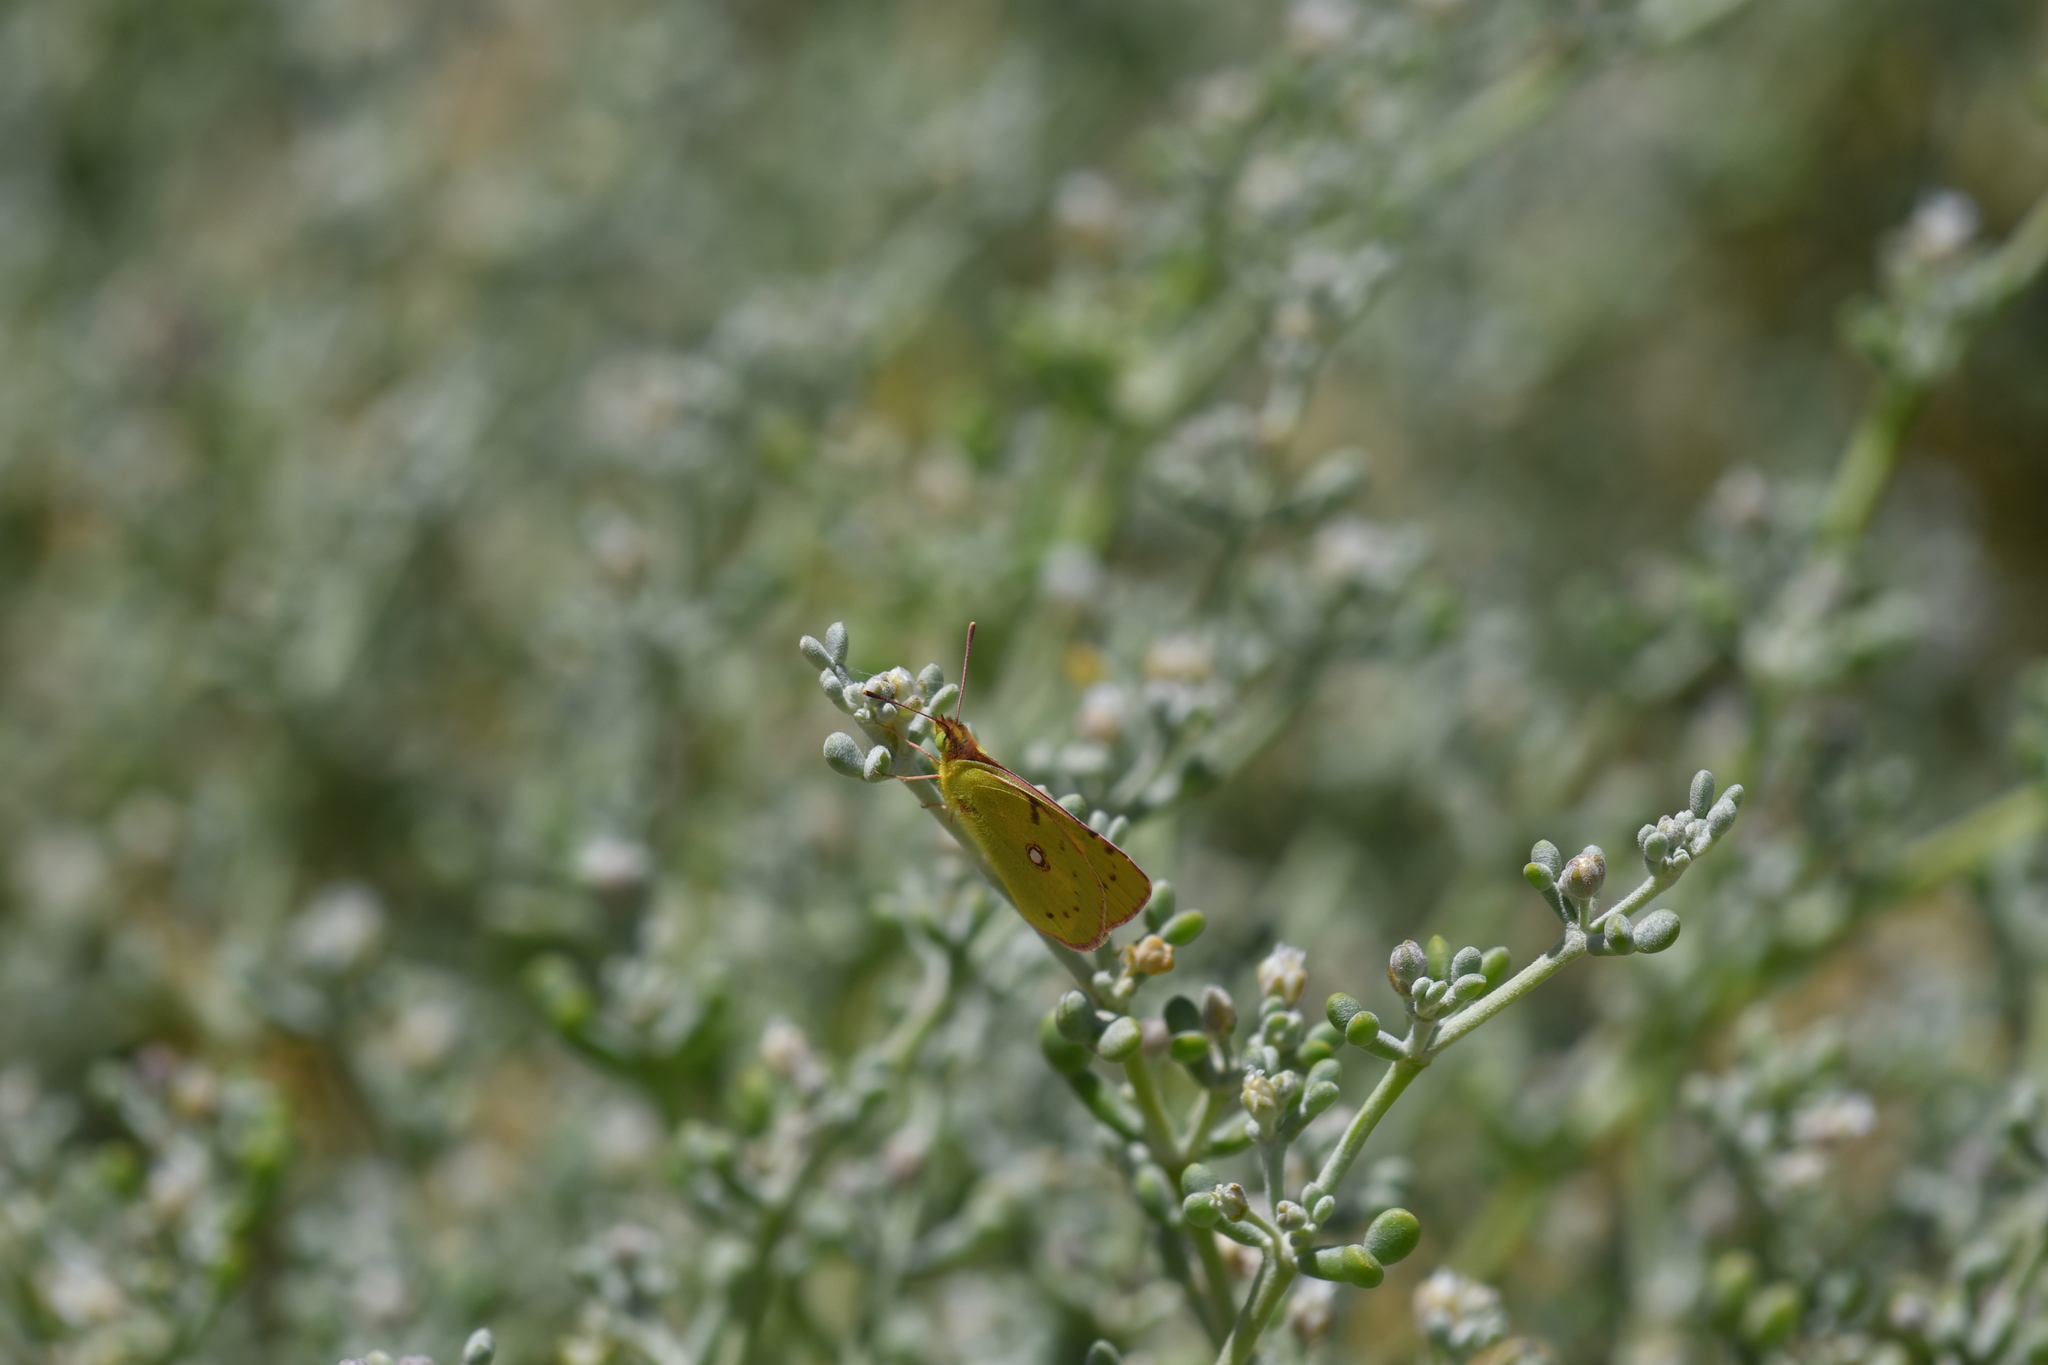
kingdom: Animalia
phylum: Arthropoda
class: Insecta
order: Lepidoptera
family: Pieridae
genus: Colias
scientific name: Colias croceus
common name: Clouded yellow
